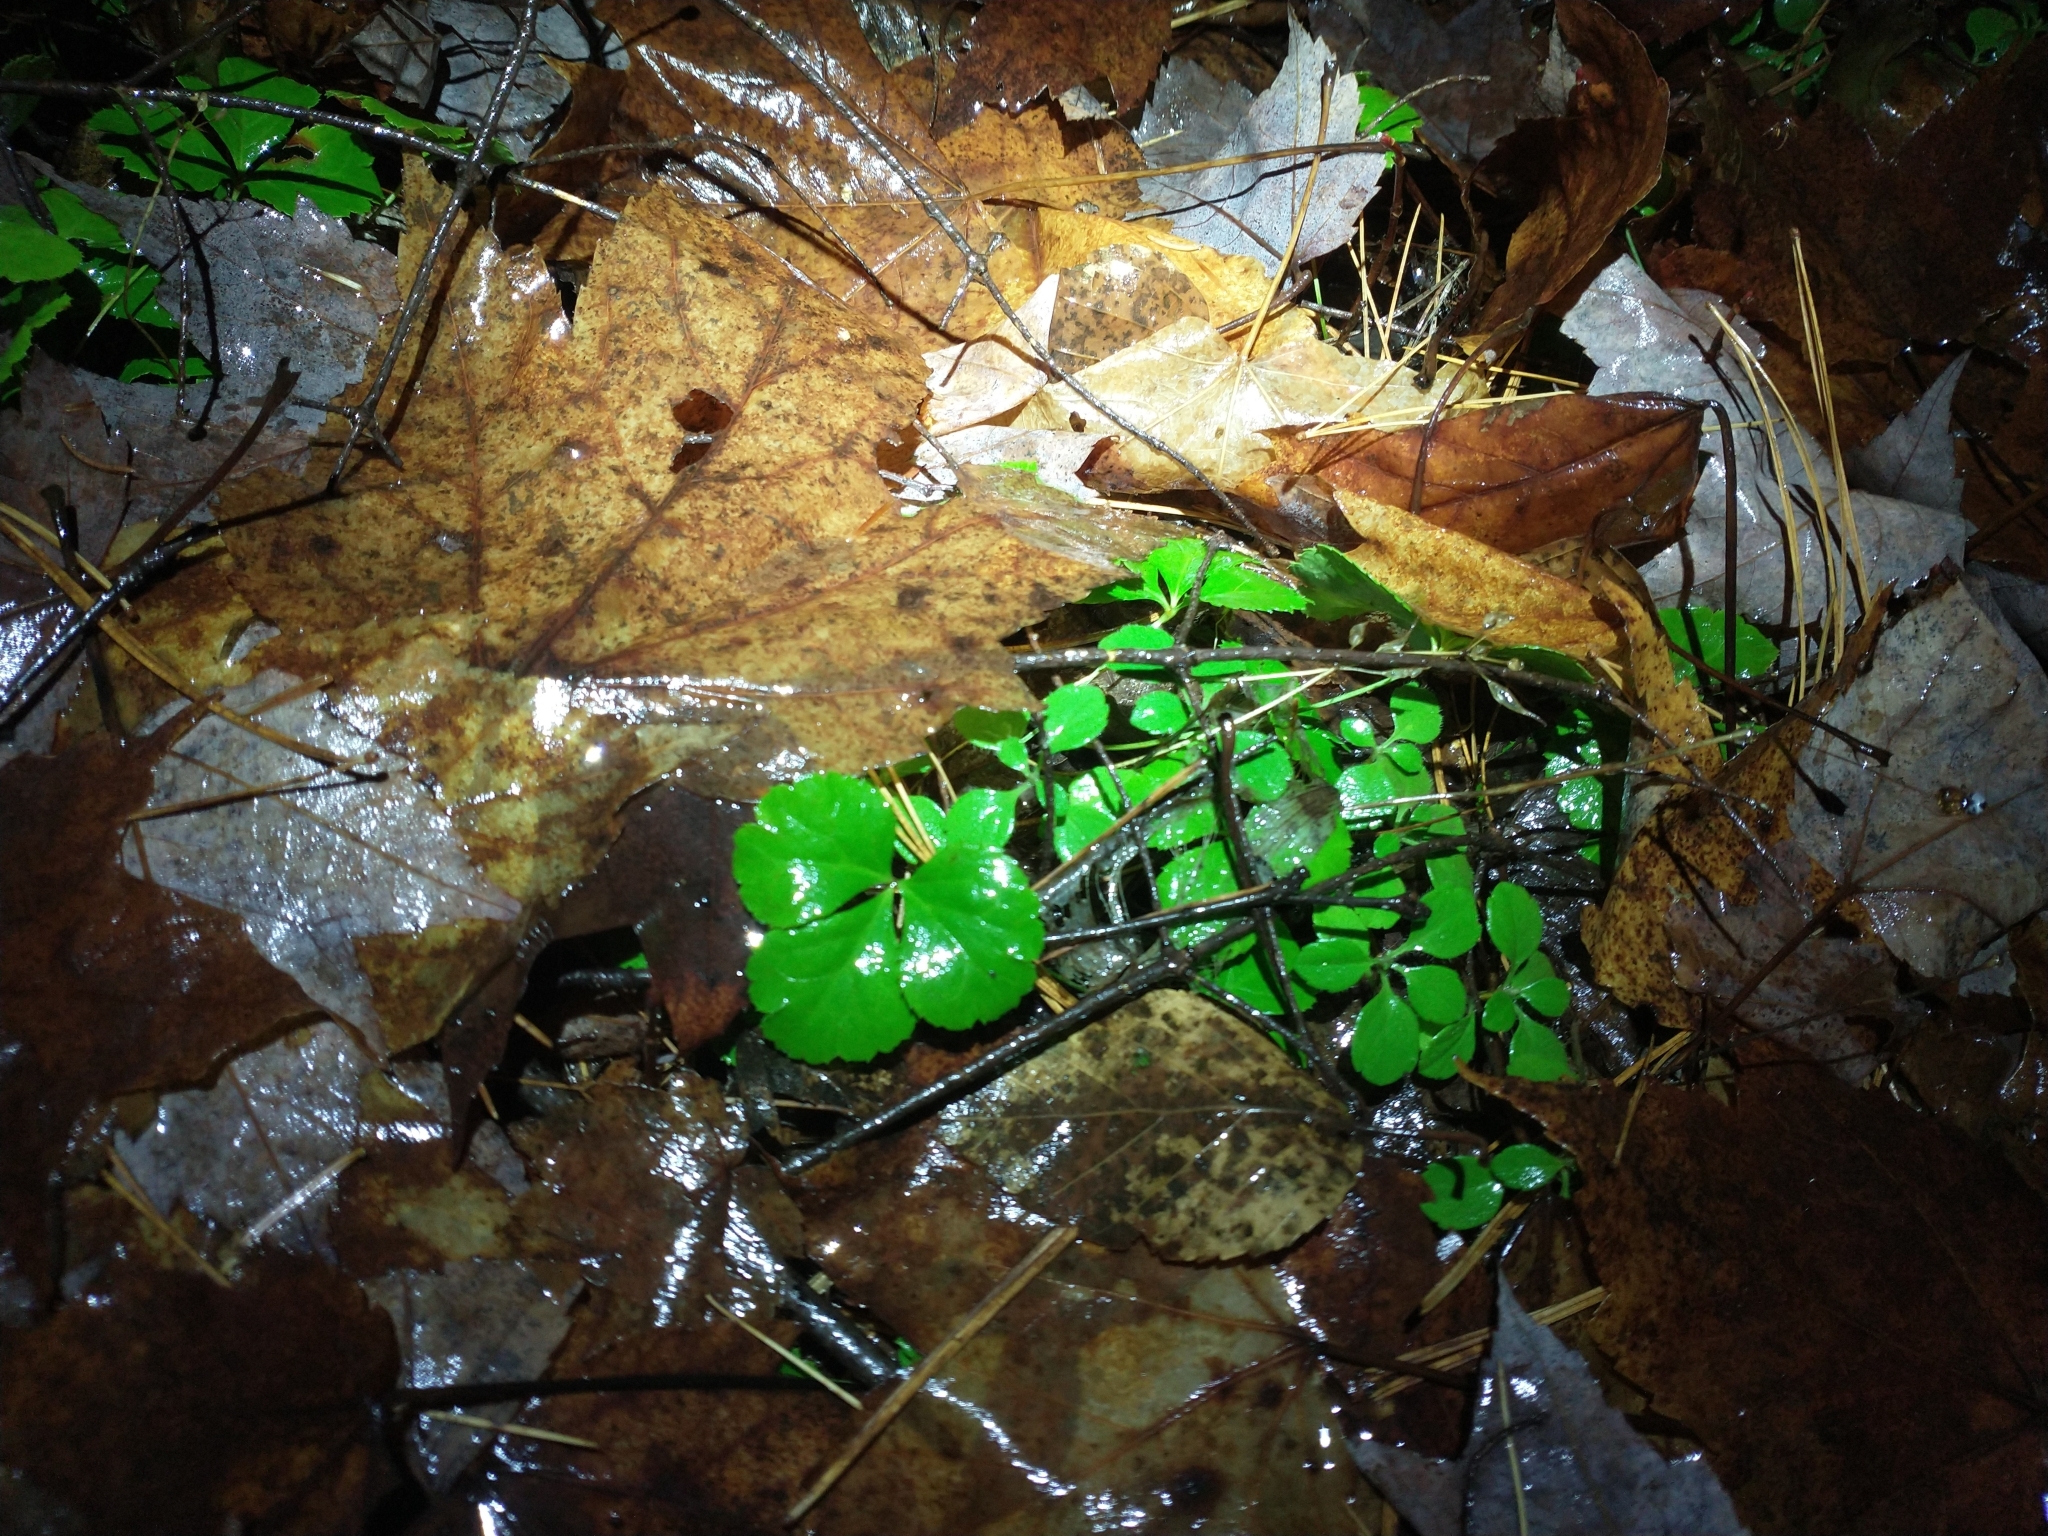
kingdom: Plantae
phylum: Tracheophyta
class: Magnoliopsida
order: Ranunculales
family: Ranunculaceae
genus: Coptis
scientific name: Coptis trifolia
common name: Canker-root
